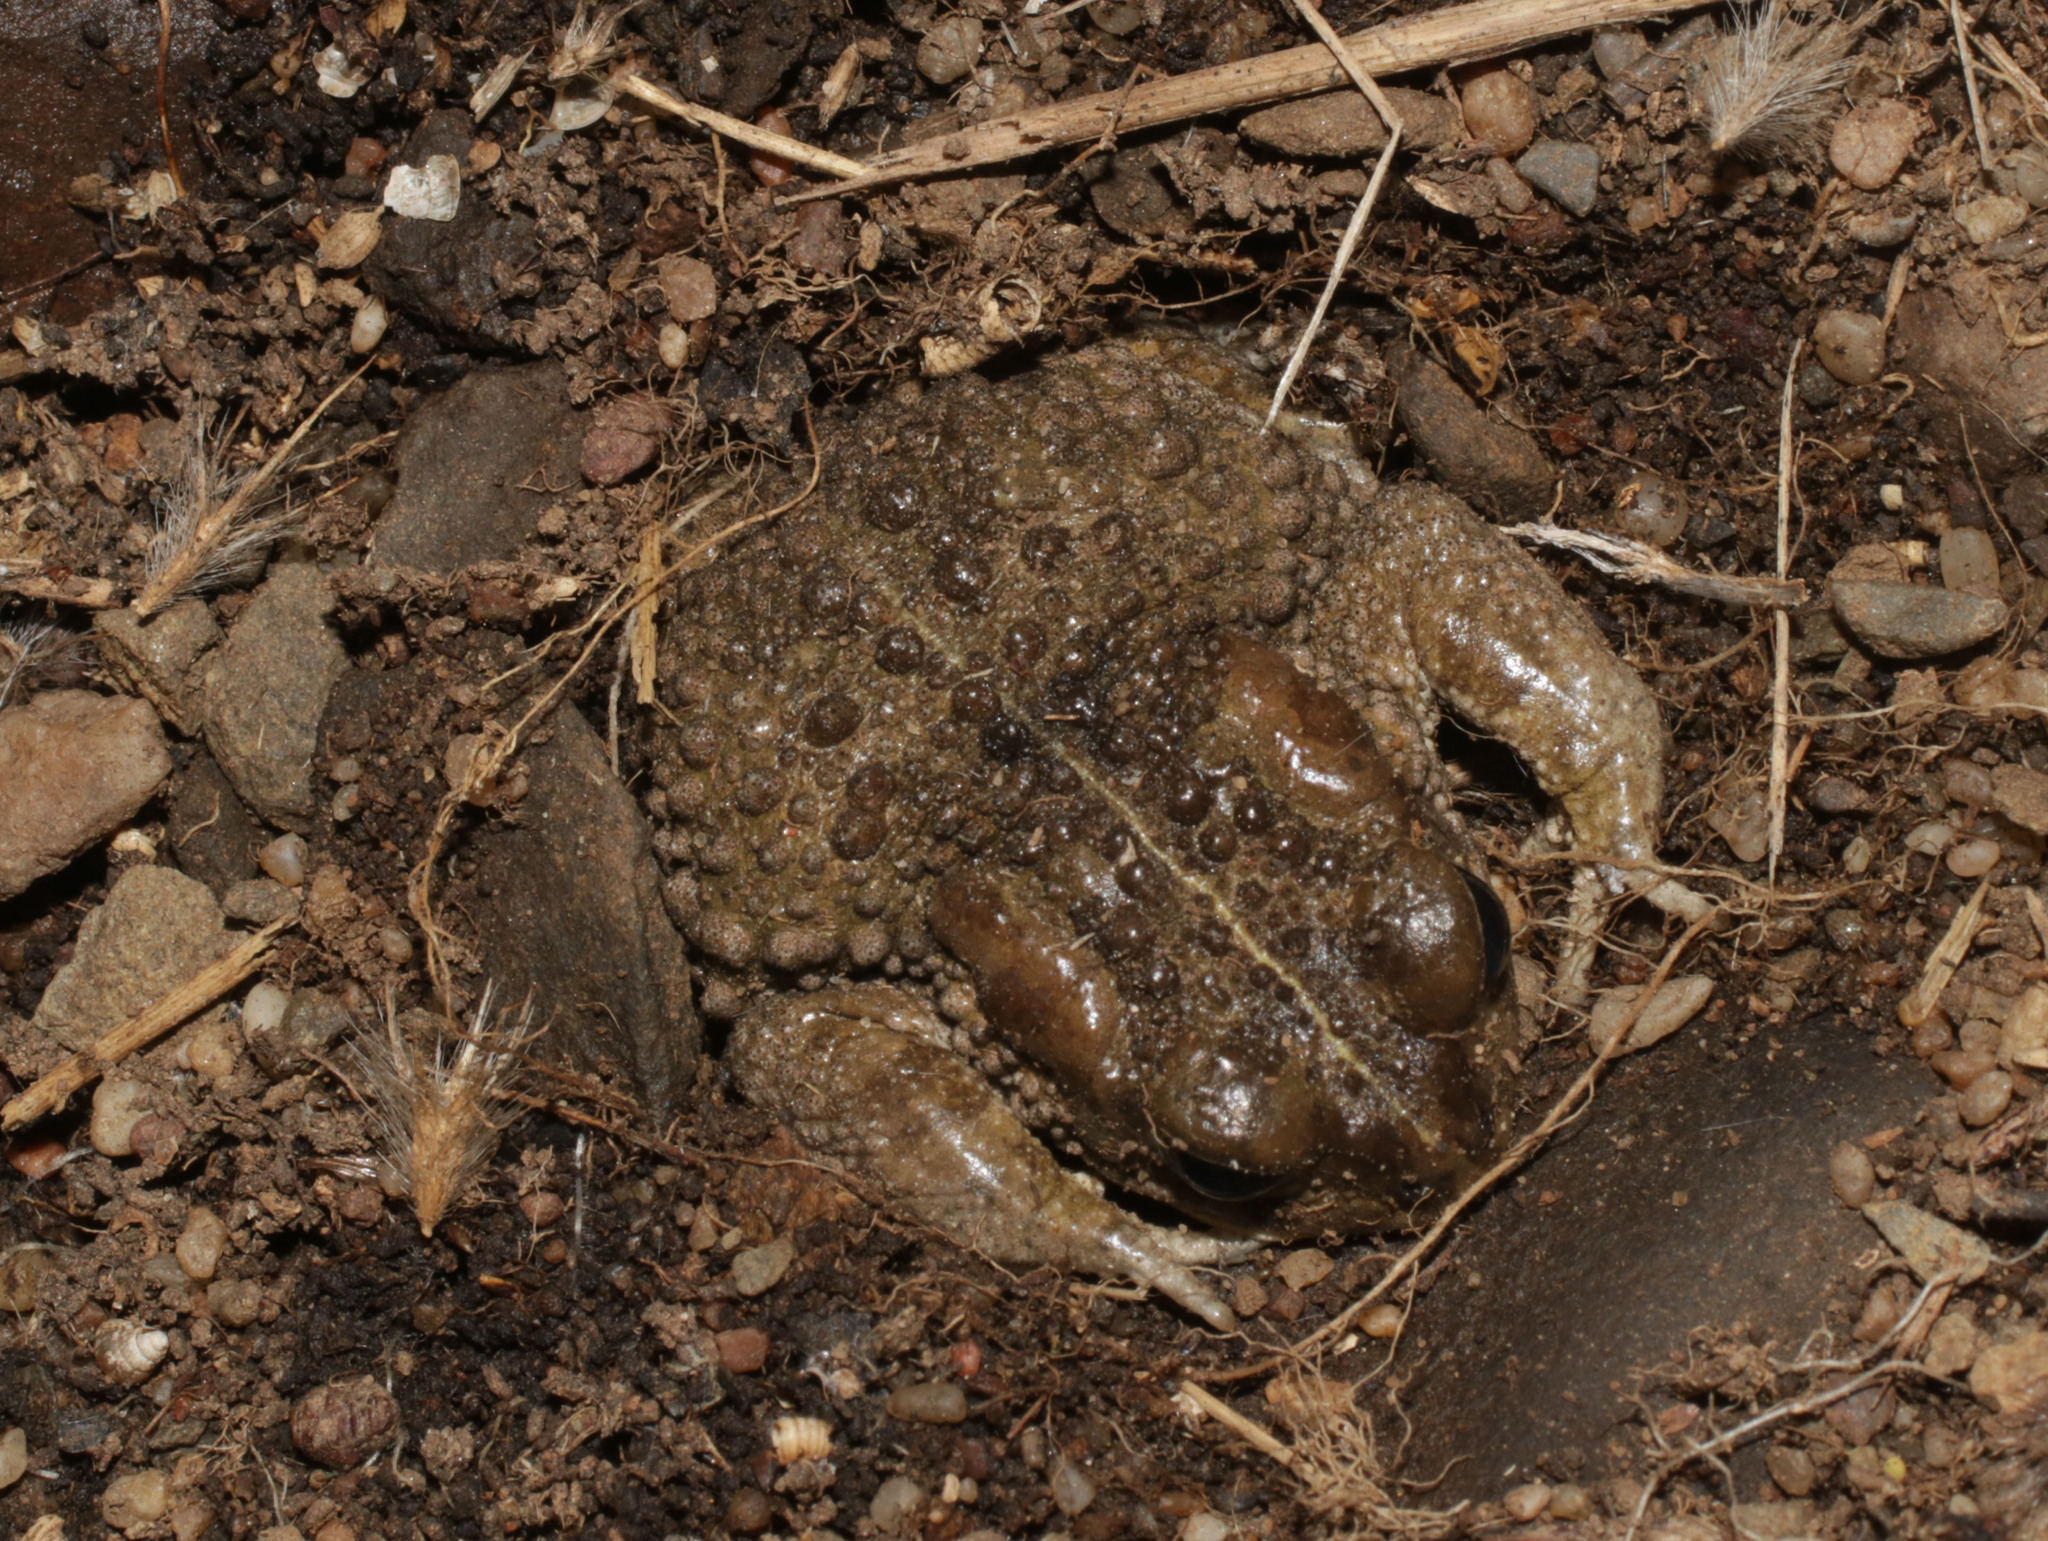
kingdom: Animalia
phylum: Chordata
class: Amphibia
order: Anura
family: Bufonidae
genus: Vandijkophrynus
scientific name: Vandijkophrynus angusticeps
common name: Sand toad
